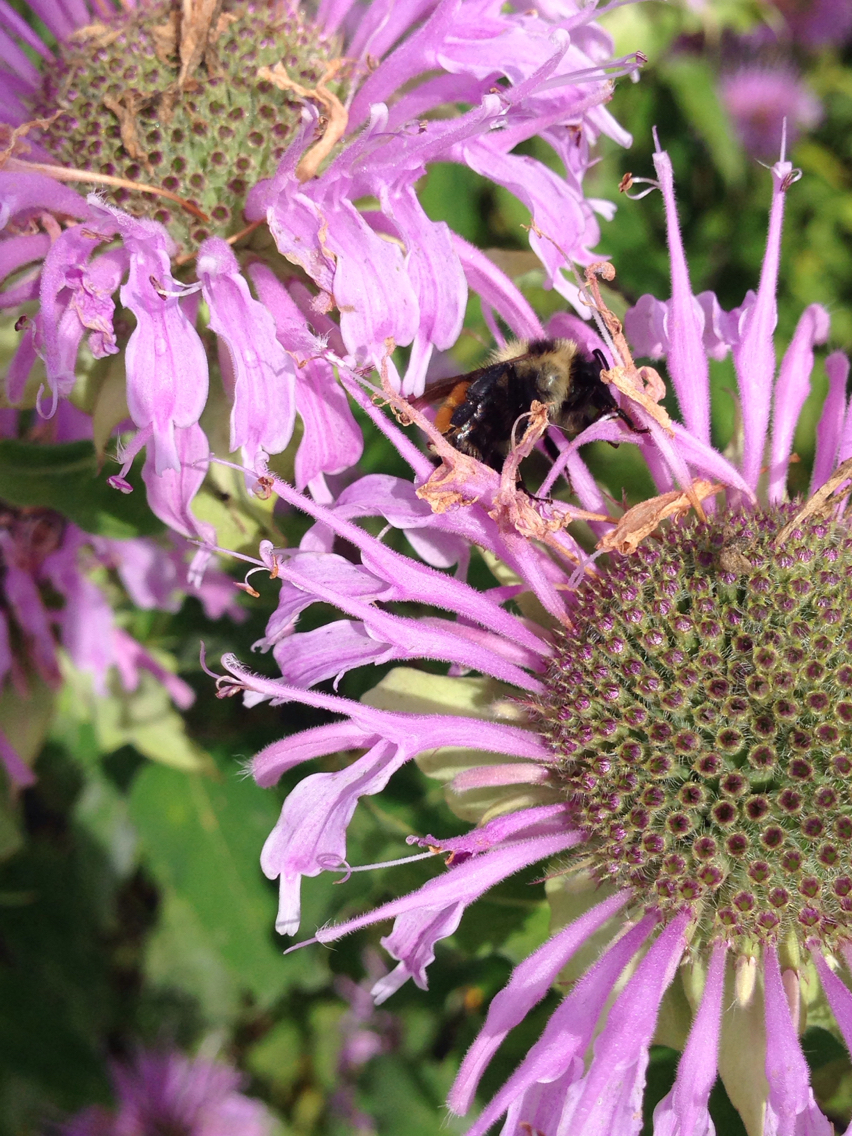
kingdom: Animalia
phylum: Arthropoda
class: Insecta
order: Hymenoptera
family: Apidae
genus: Bombus
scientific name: Bombus ternarius
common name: Tri-colored bumble bee
